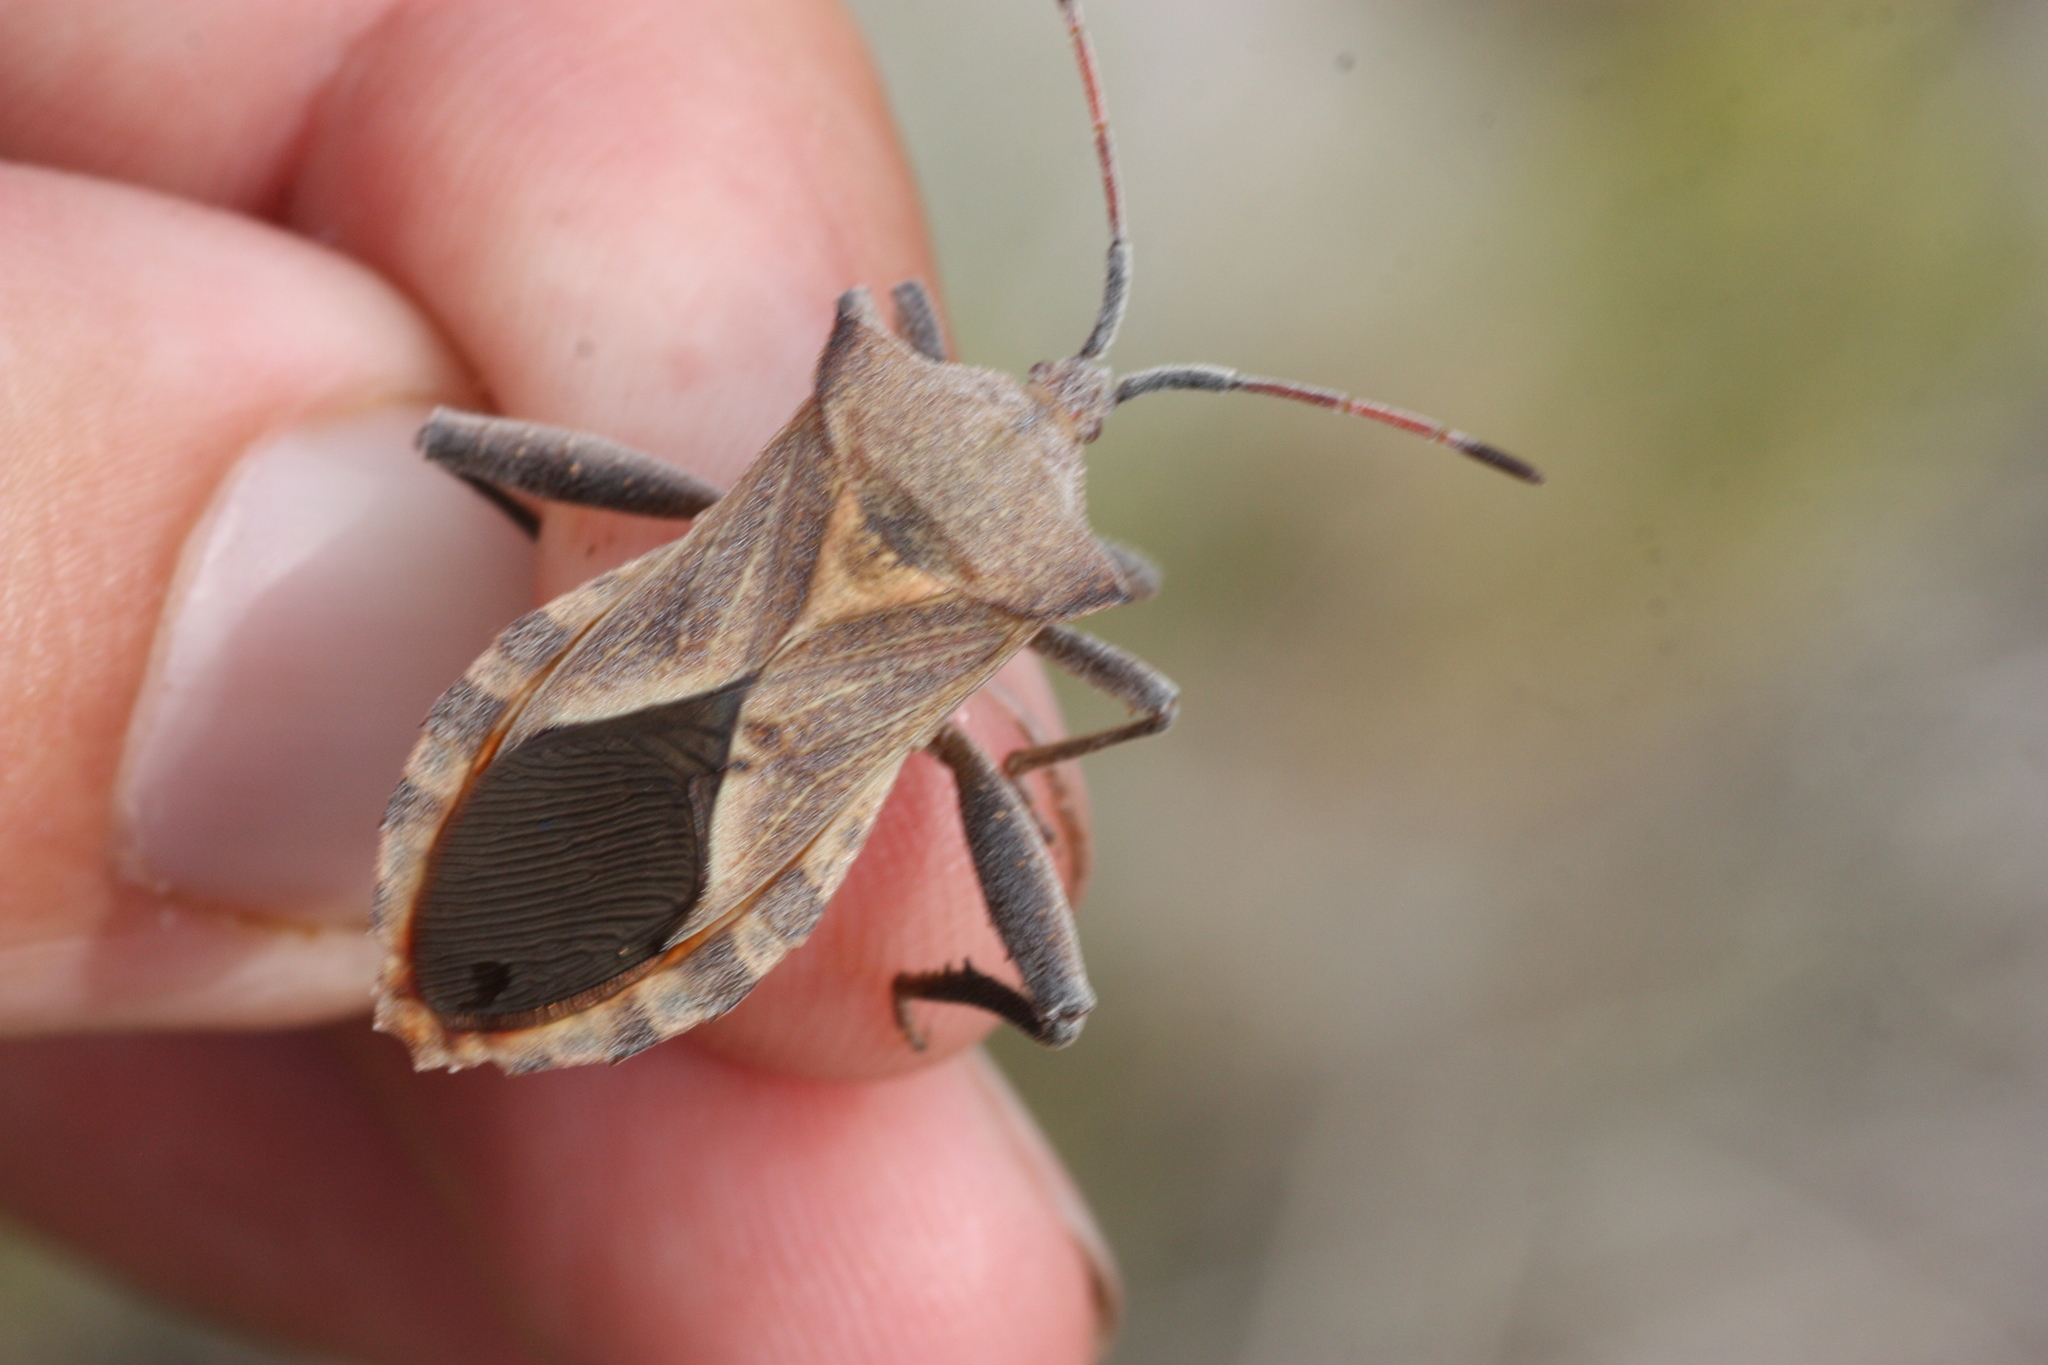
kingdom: Animalia
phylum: Arthropoda
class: Insecta
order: Hemiptera
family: Coreidae
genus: Mozena
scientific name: Mozena obtusa
